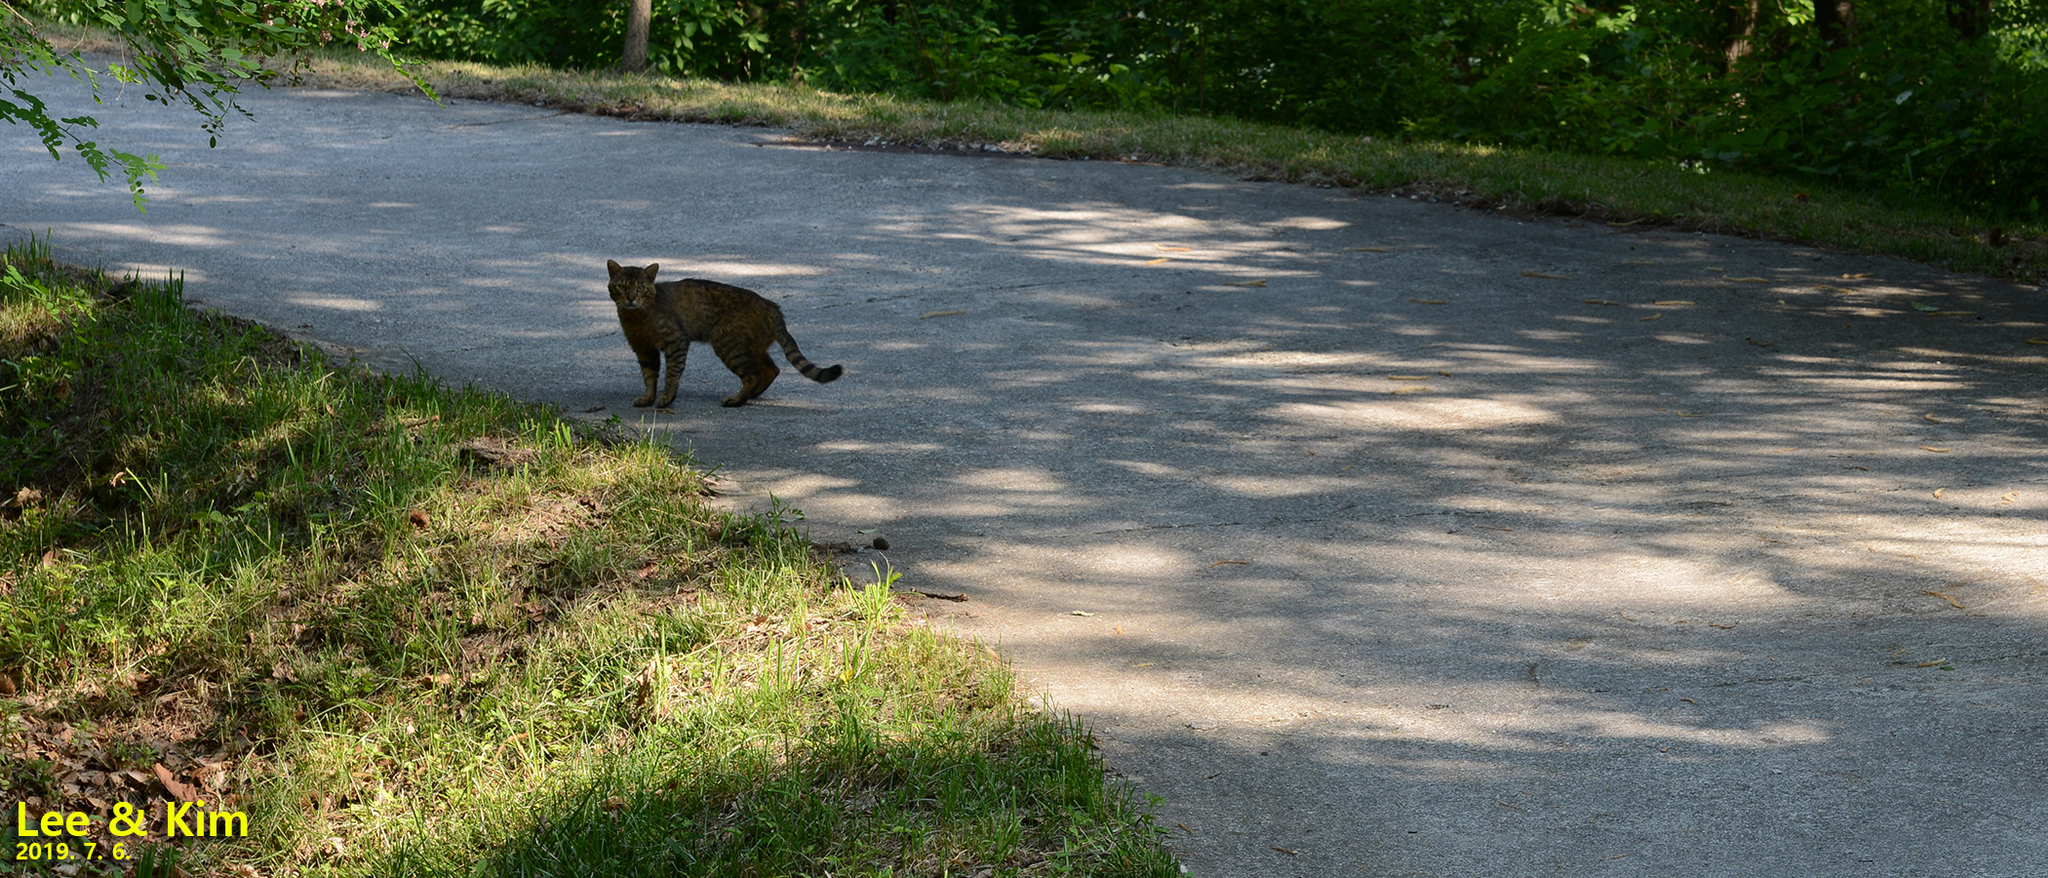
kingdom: Animalia
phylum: Chordata
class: Mammalia
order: Carnivora
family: Felidae
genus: Felis
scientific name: Felis catus
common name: Domestic cat
